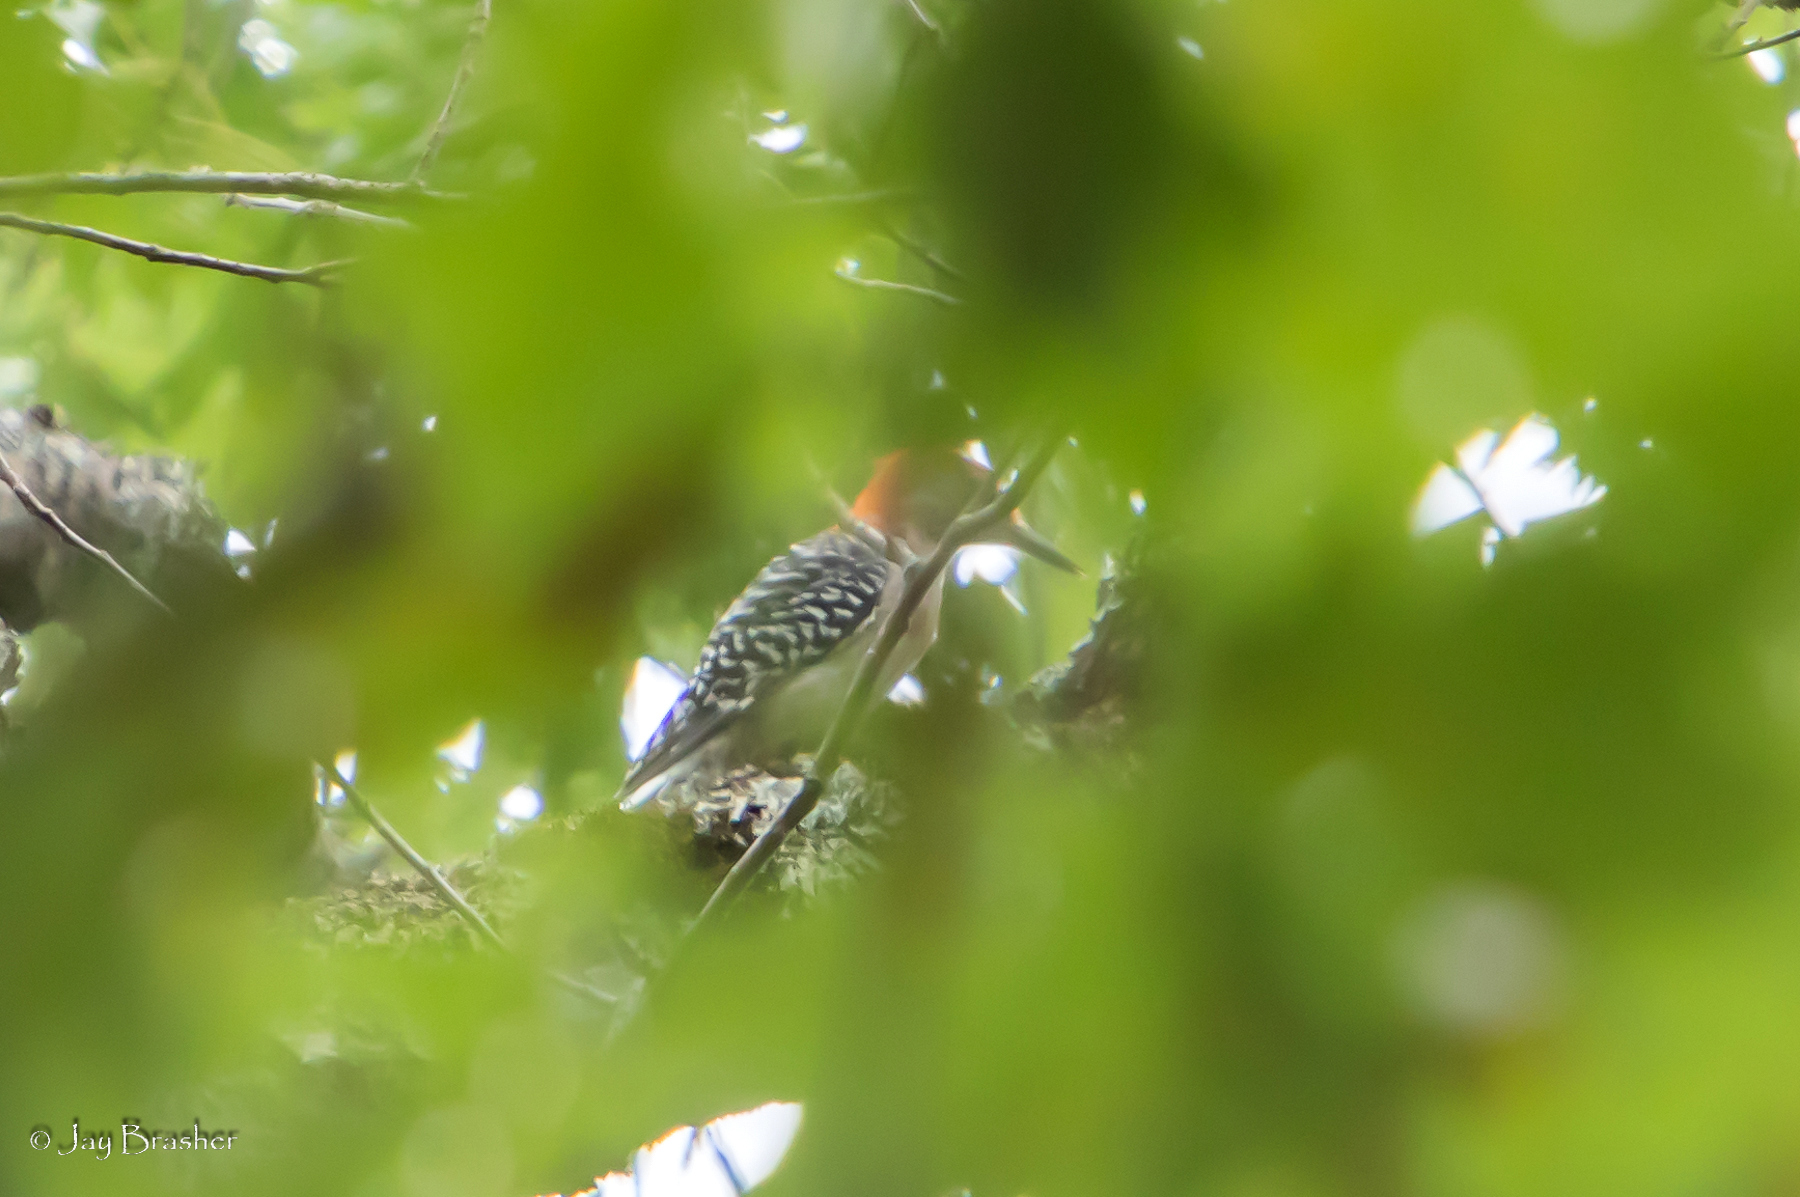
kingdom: Animalia
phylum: Chordata
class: Aves
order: Piciformes
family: Picidae
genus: Melanerpes
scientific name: Melanerpes carolinus
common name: Red-bellied woodpecker
